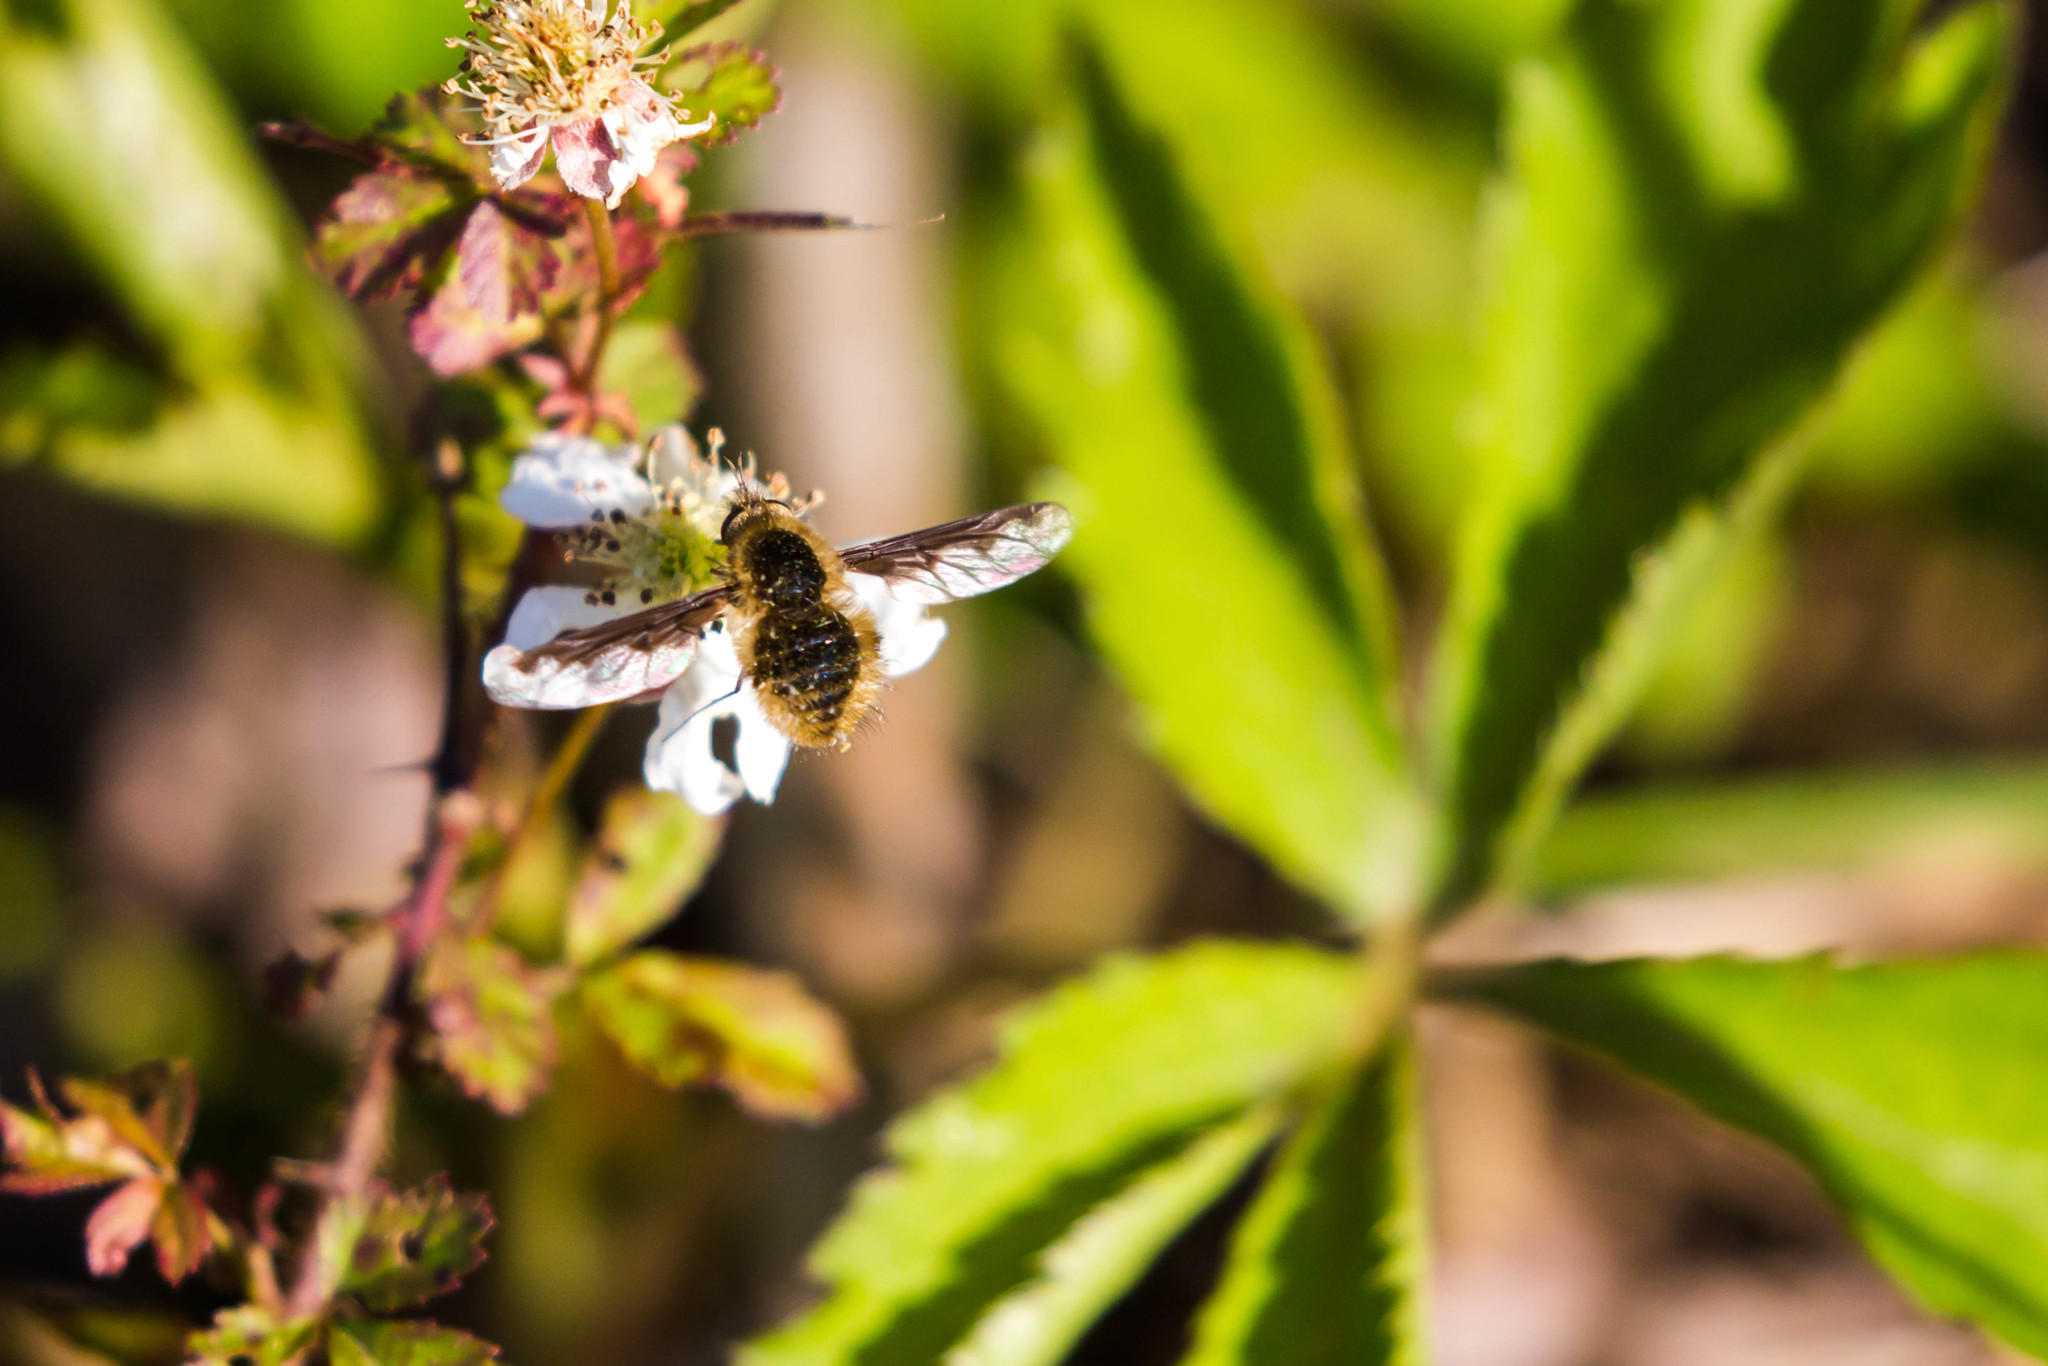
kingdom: Animalia
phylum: Arthropoda
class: Insecta
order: Diptera
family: Bombyliidae
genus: Bombylius
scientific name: Bombylius major
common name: Bee fly
